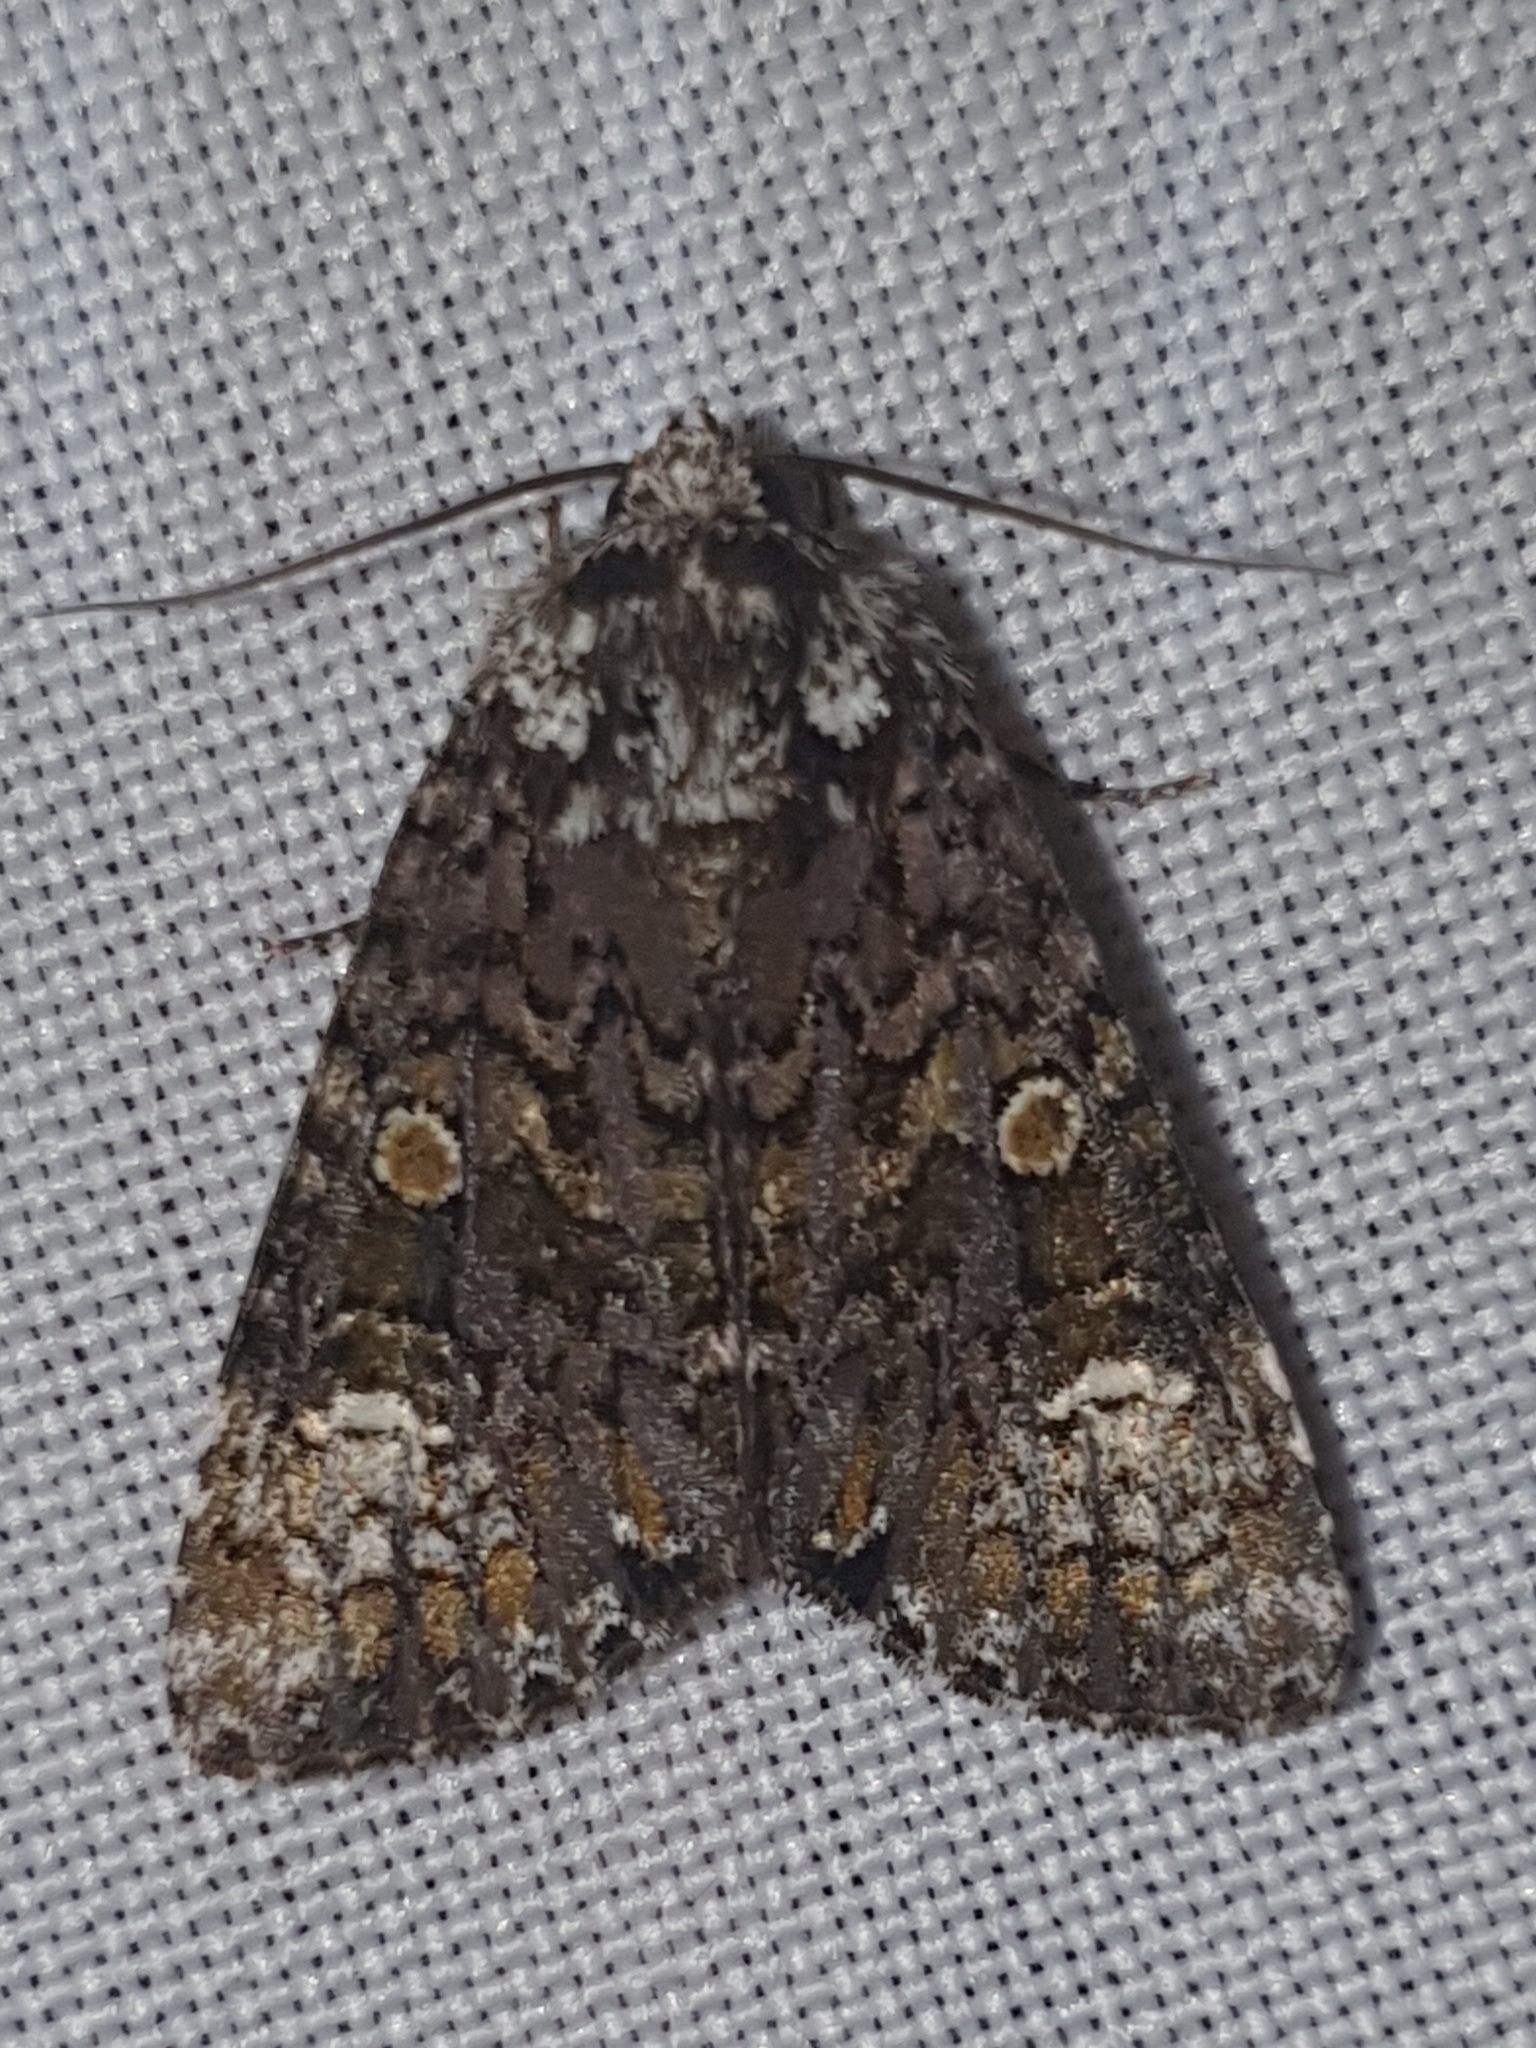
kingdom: Animalia
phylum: Arthropoda
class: Insecta
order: Lepidoptera
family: Noctuidae
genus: Craniophora
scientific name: Craniophora ligustri
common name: Coronet
